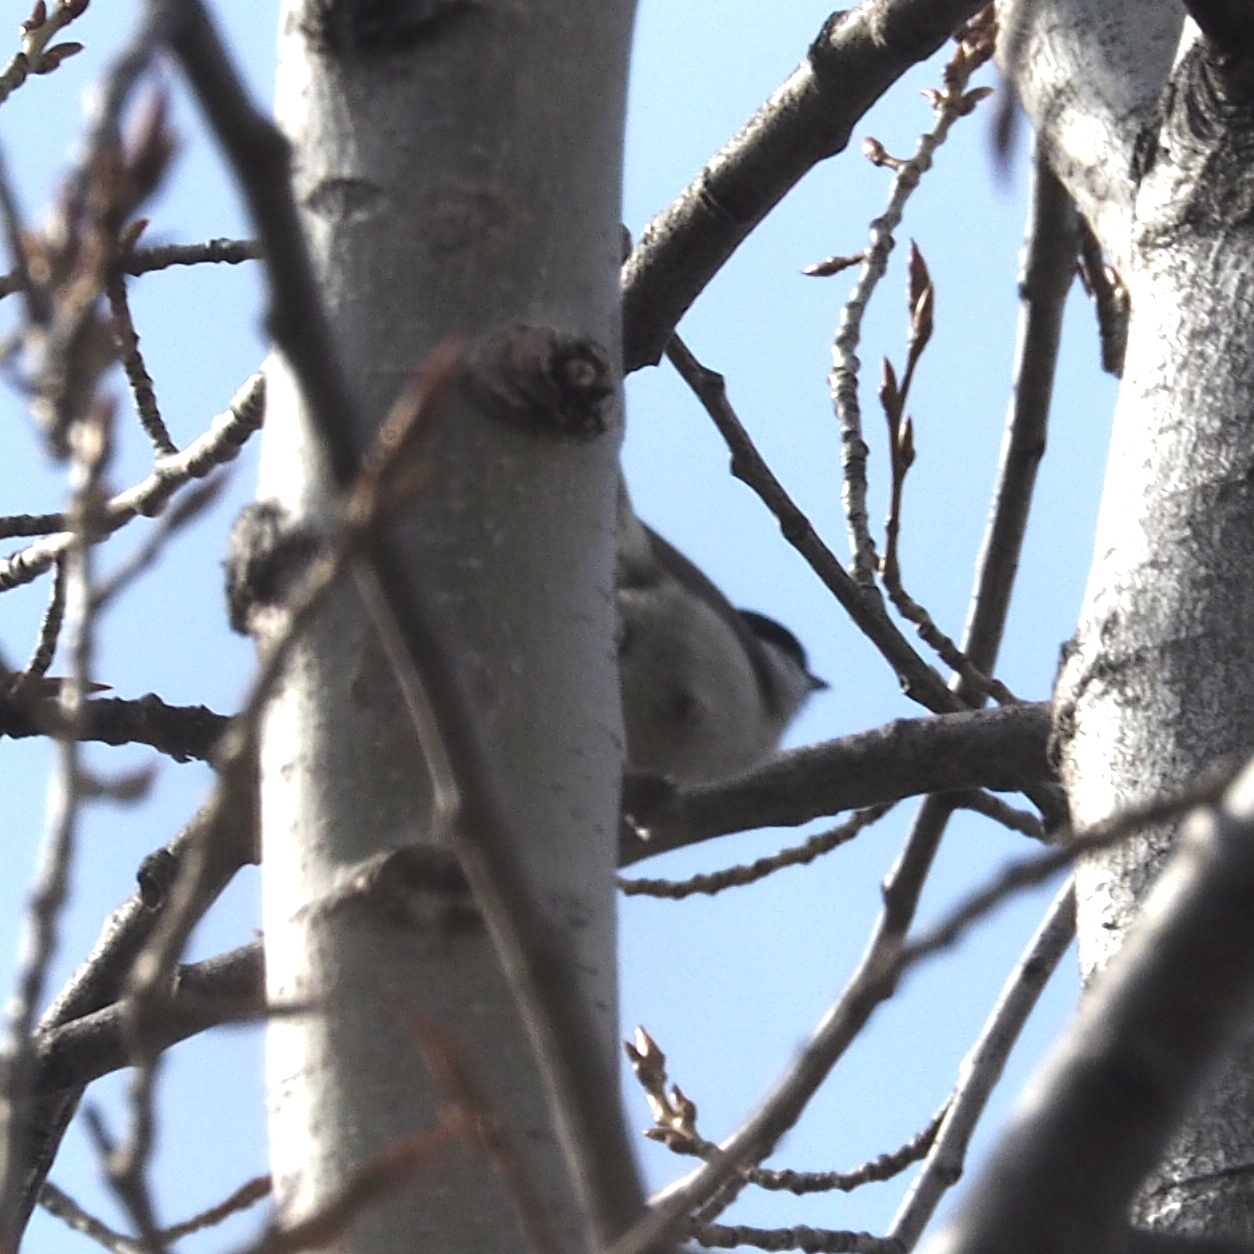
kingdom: Animalia
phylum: Chordata
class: Aves
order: Passeriformes
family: Paridae
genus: Poecile
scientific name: Poecile palustris
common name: Marsh tit
